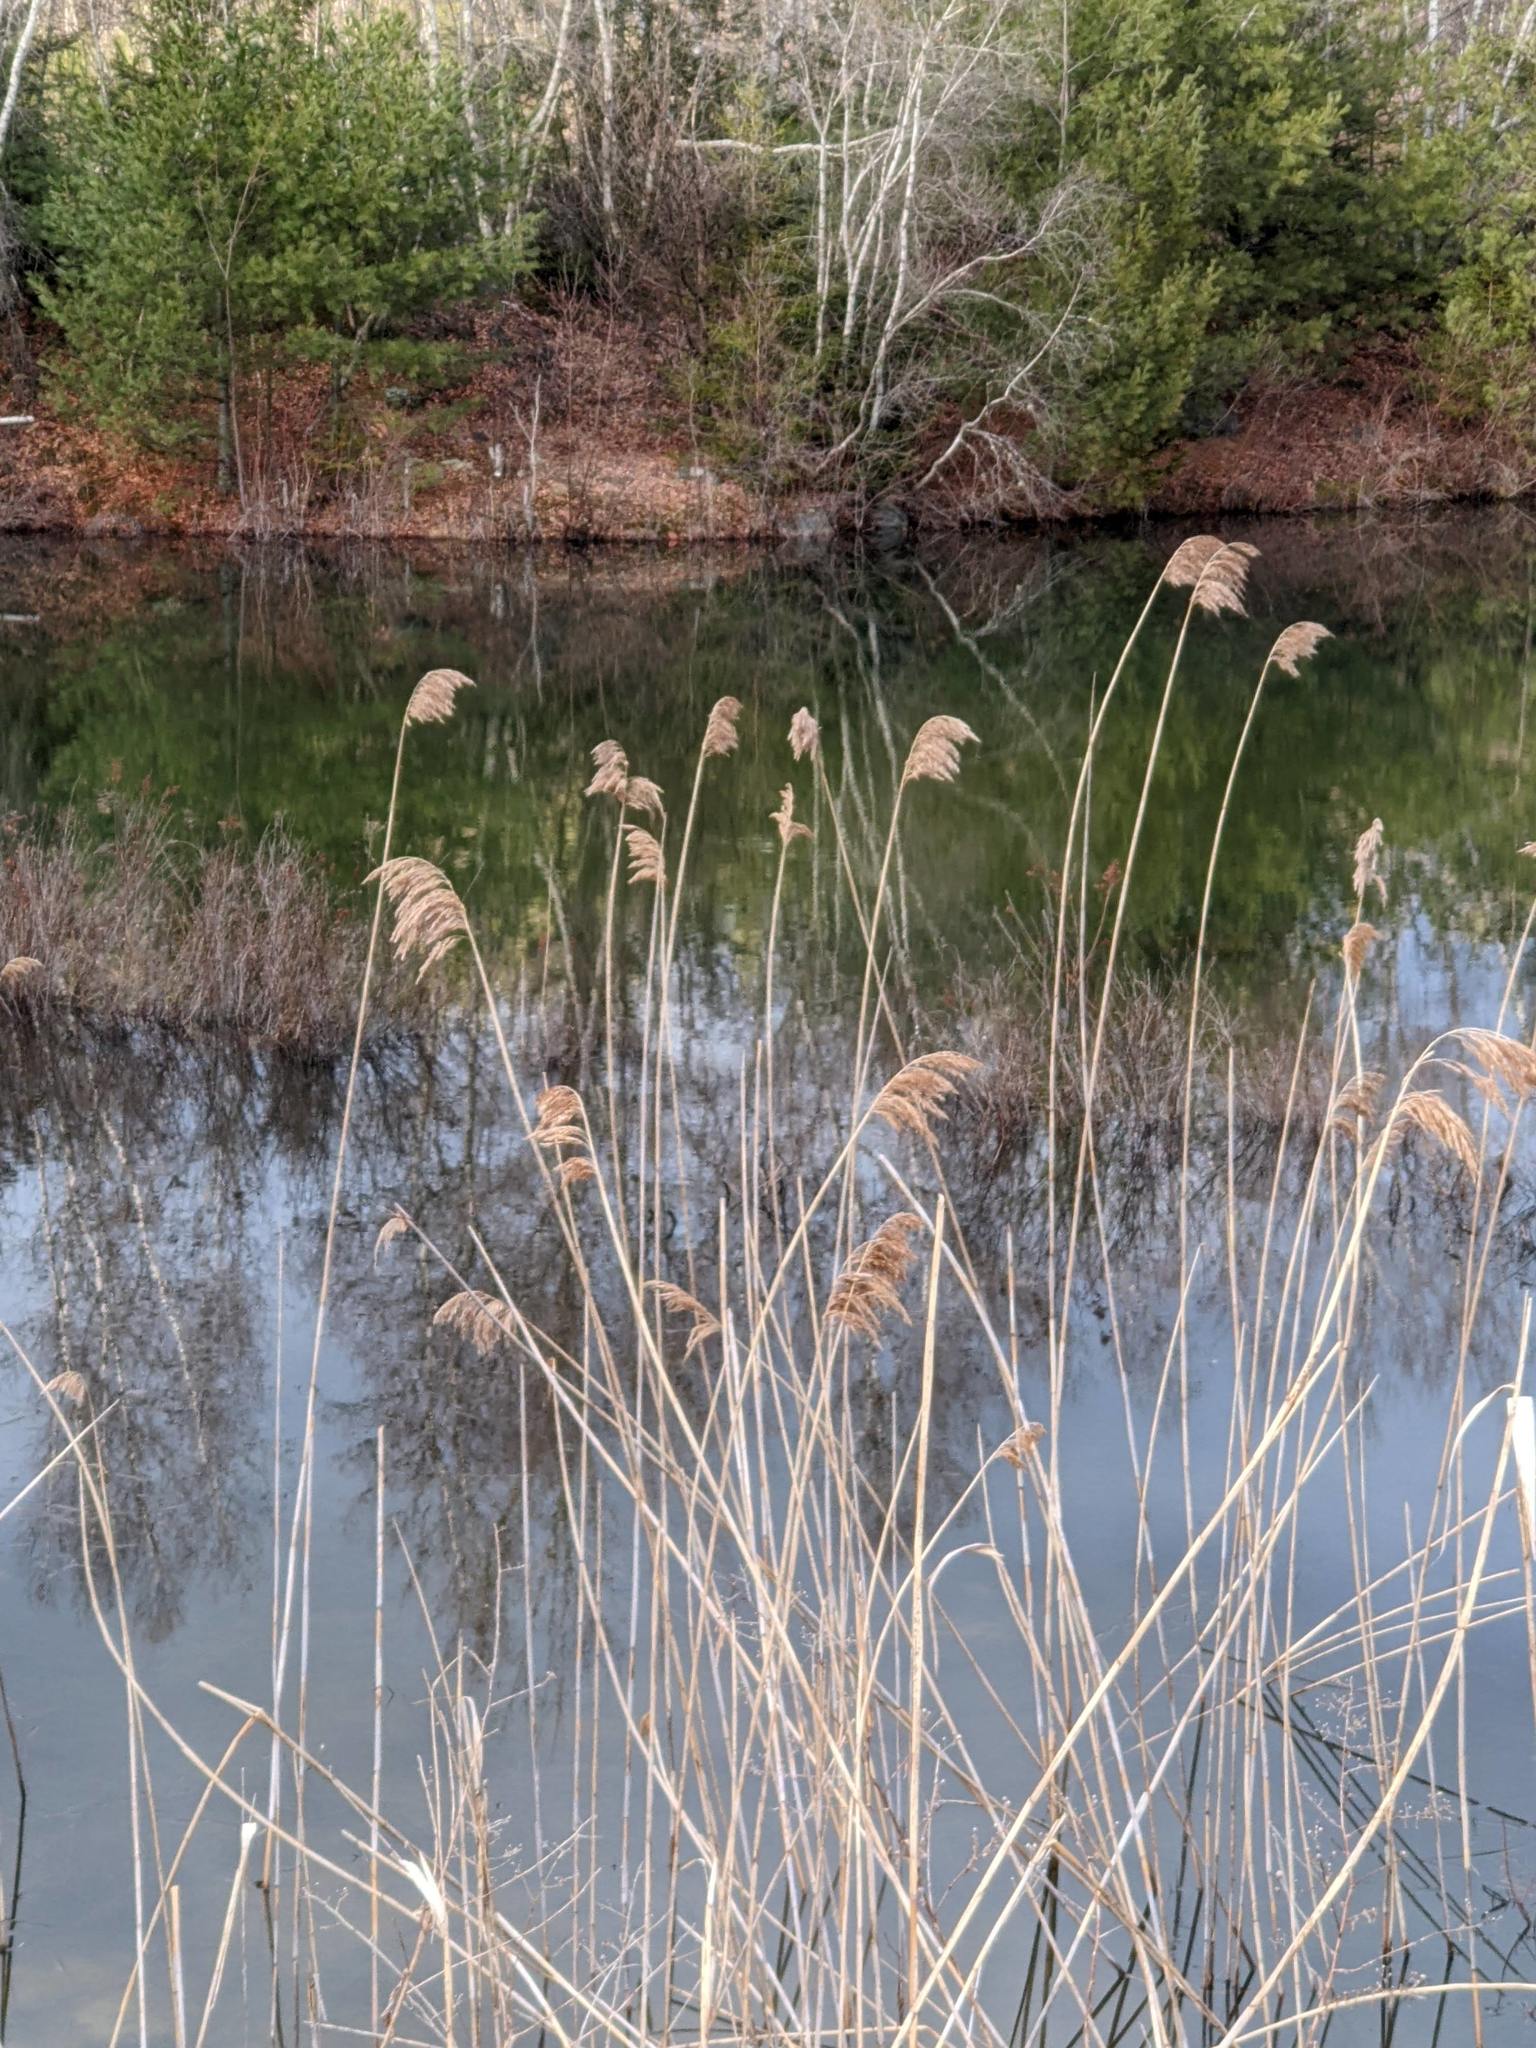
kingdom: Plantae
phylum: Tracheophyta
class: Liliopsida
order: Poales
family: Poaceae
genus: Phragmites
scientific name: Phragmites australis
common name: Common reed
